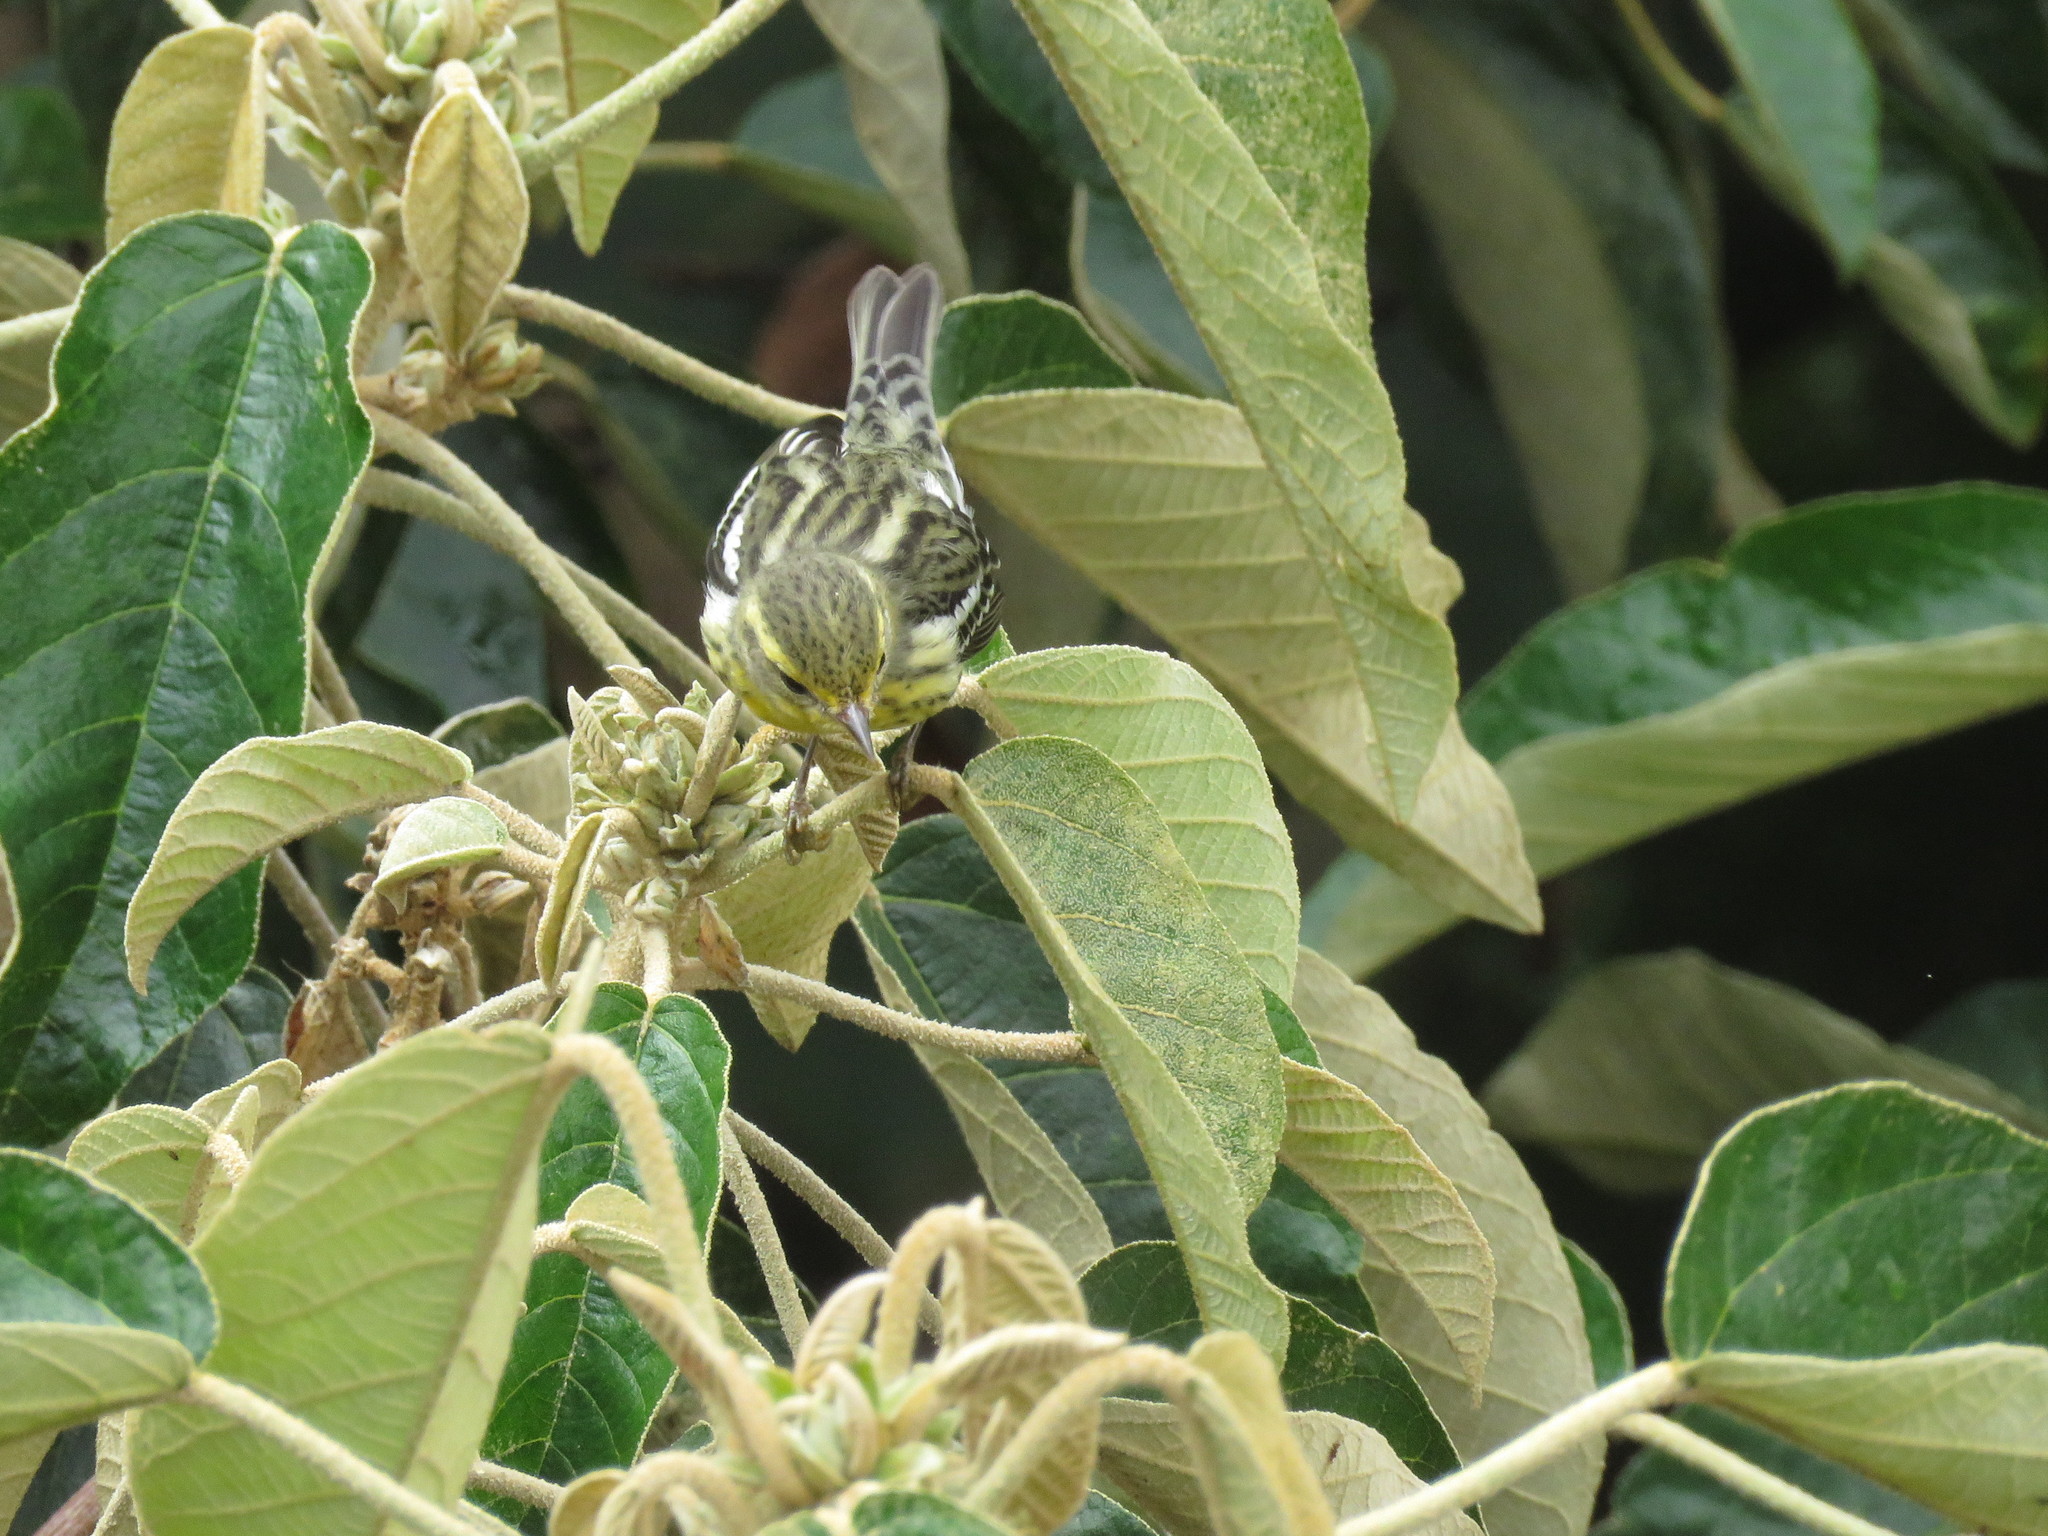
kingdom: Animalia
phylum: Chordata
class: Aves
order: Passeriformes
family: Parulidae
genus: Setophaga
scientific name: Setophaga fusca
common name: Blackburnian warbler
